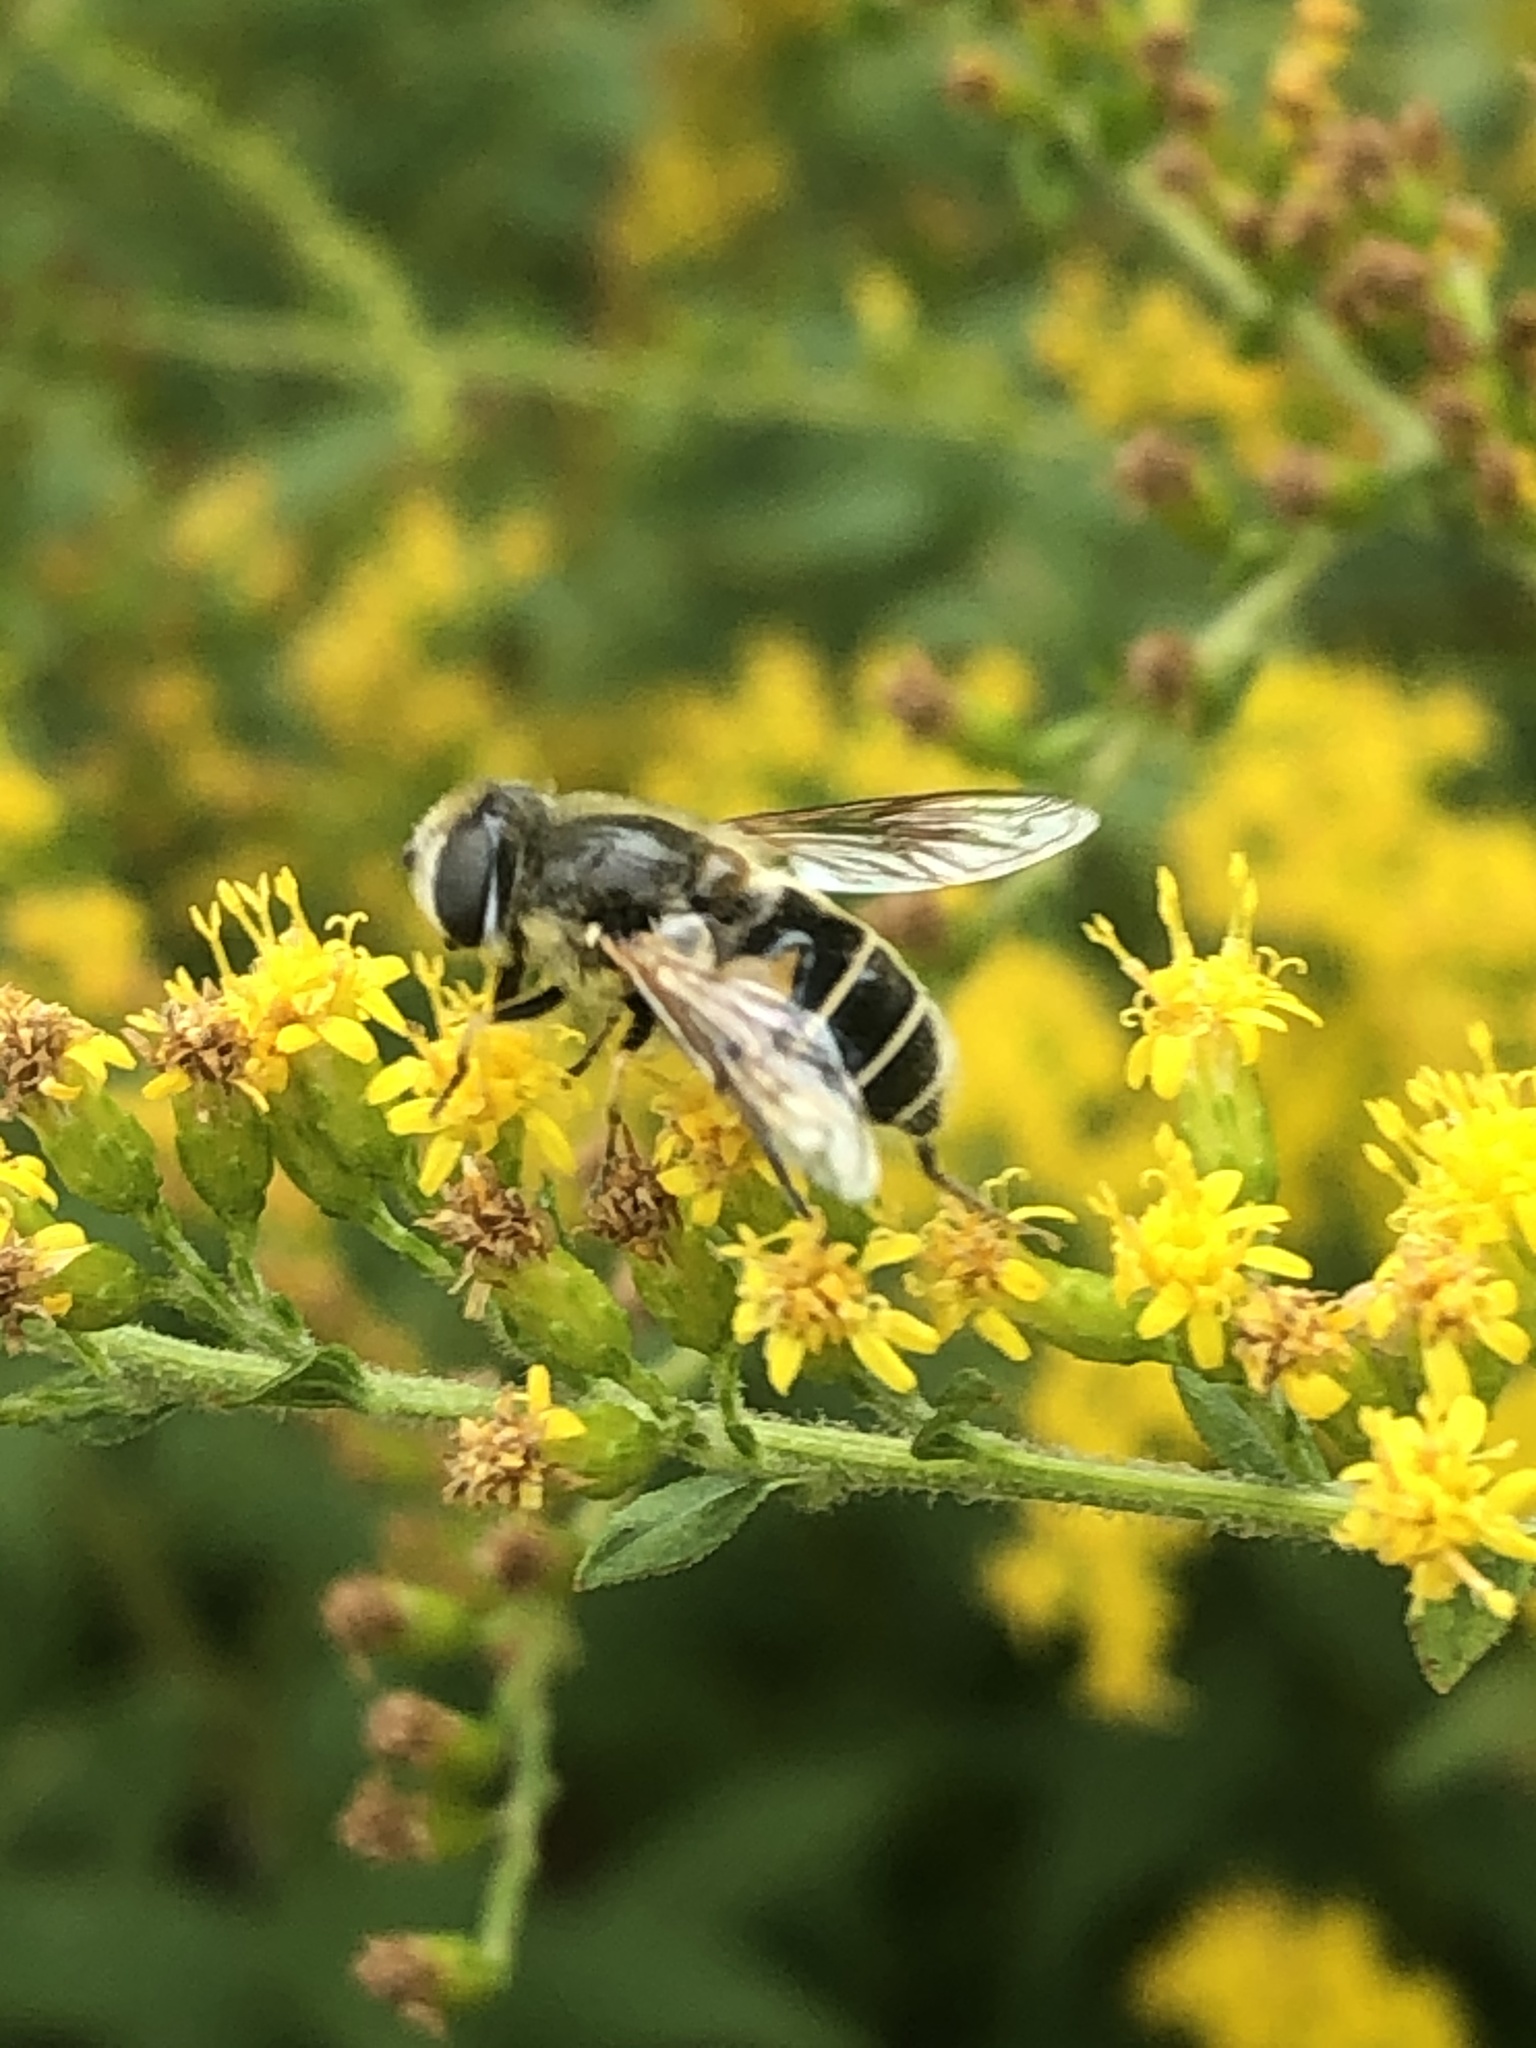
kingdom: Animalia
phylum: Arthropoda
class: Insecta
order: Diptera
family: Syrphidae
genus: Eristalis
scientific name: Eristalis hirta
